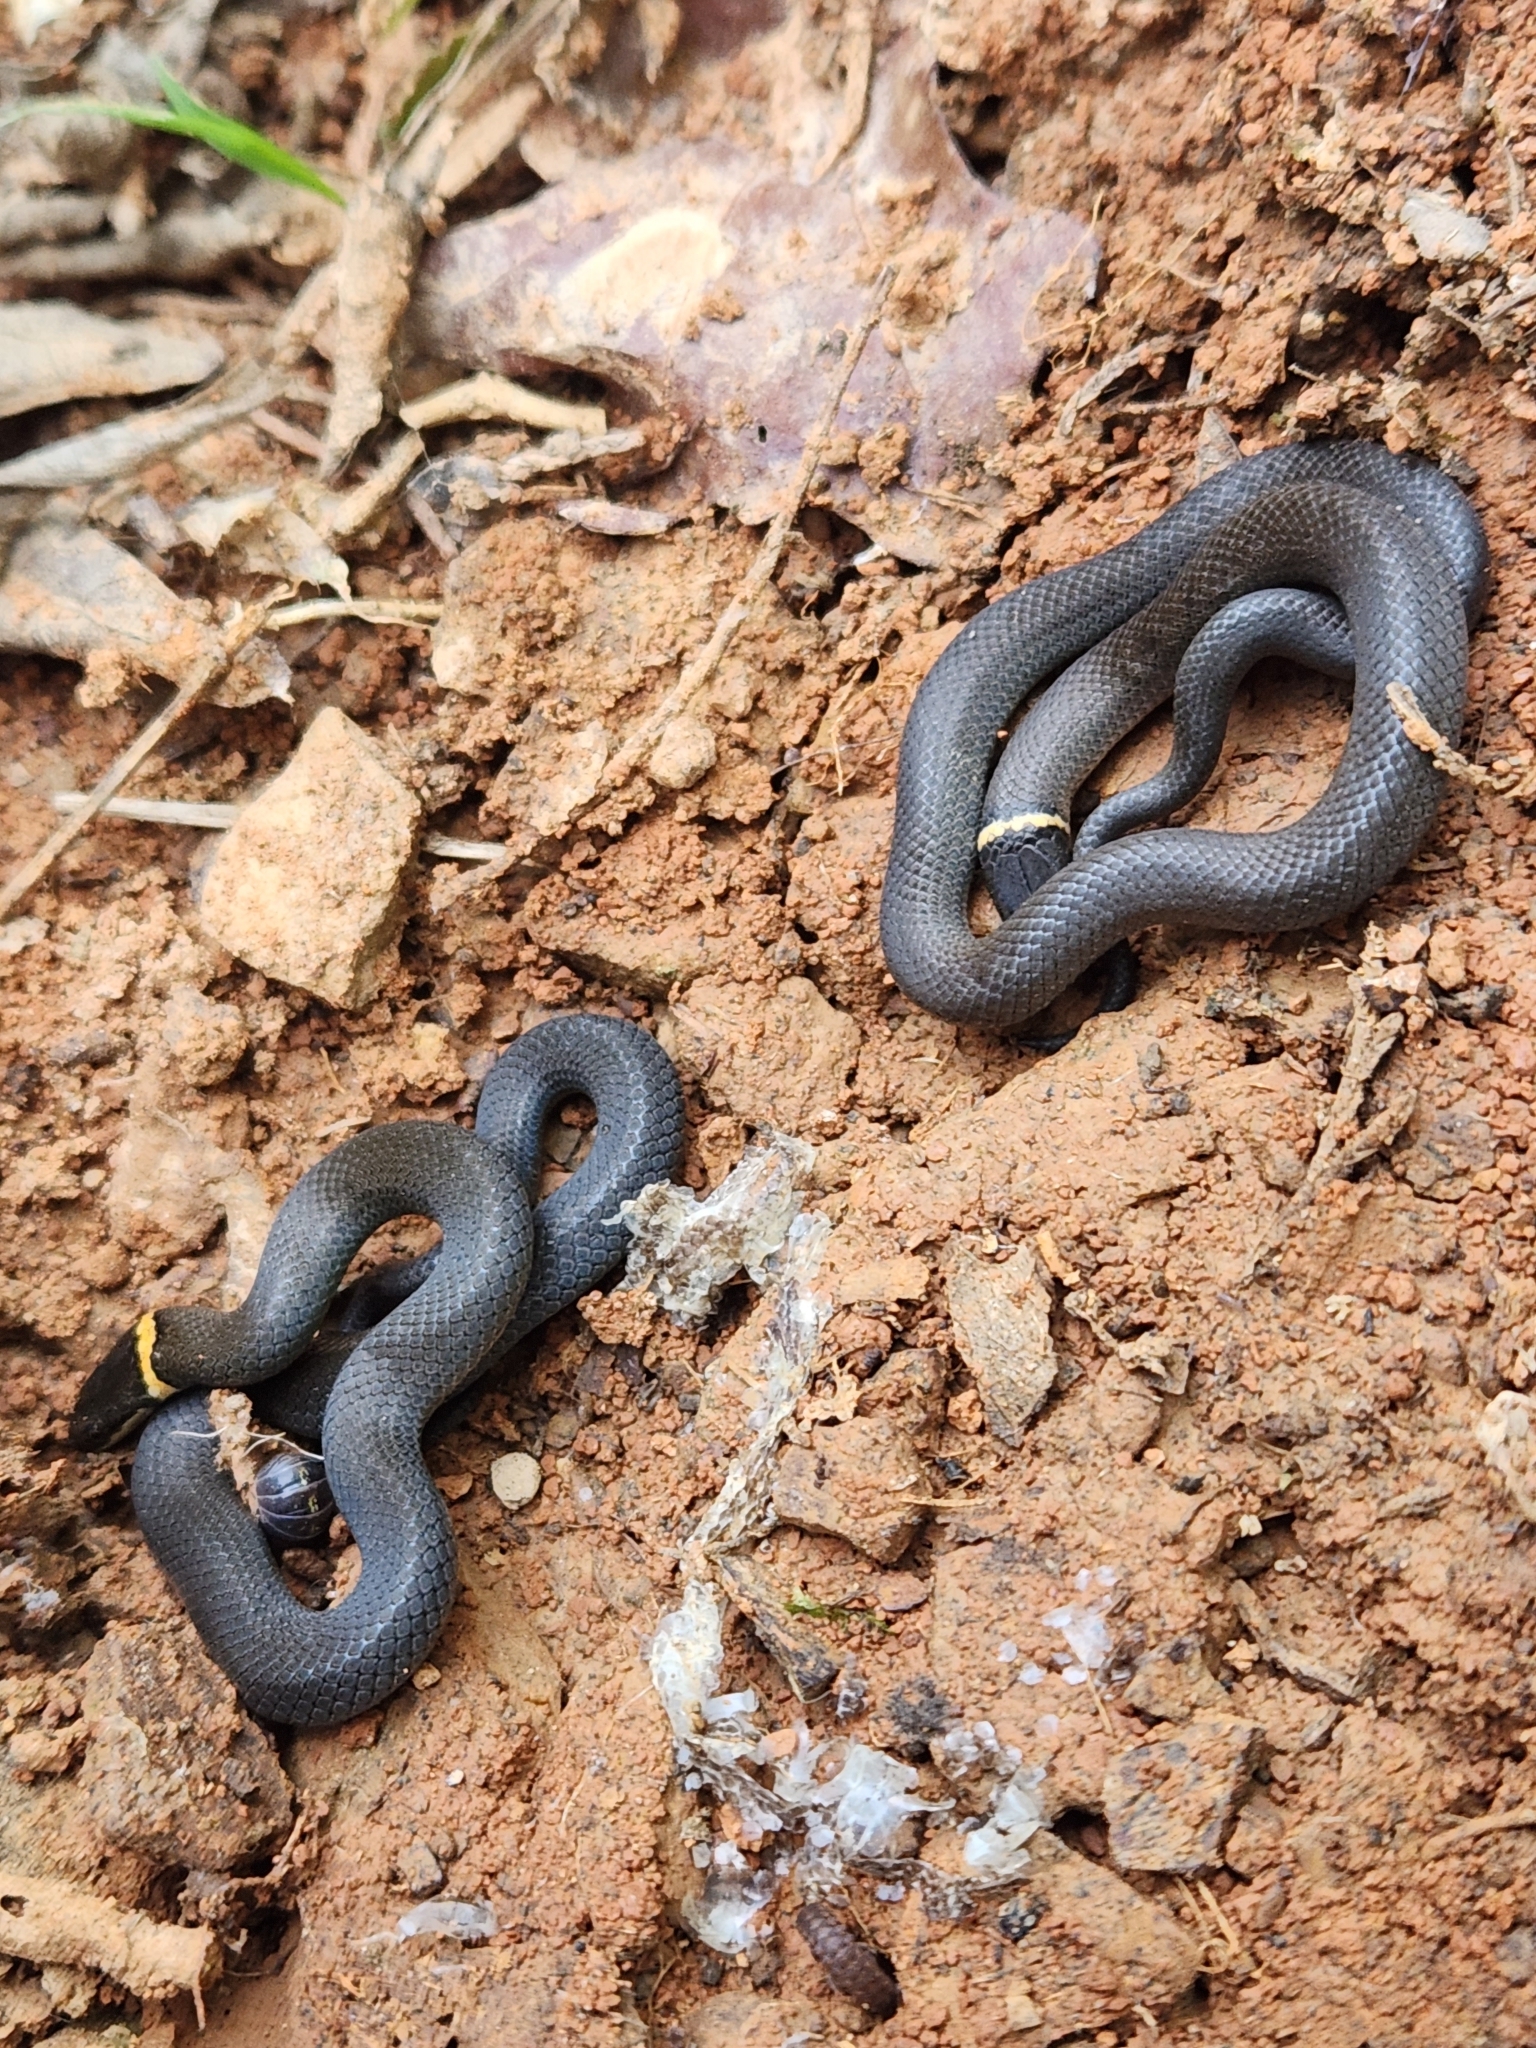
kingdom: Animalia
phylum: Chordata
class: Squamata
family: Colubridae
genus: Diadophis
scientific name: Diadophis punctatus
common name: Ringneck snake
